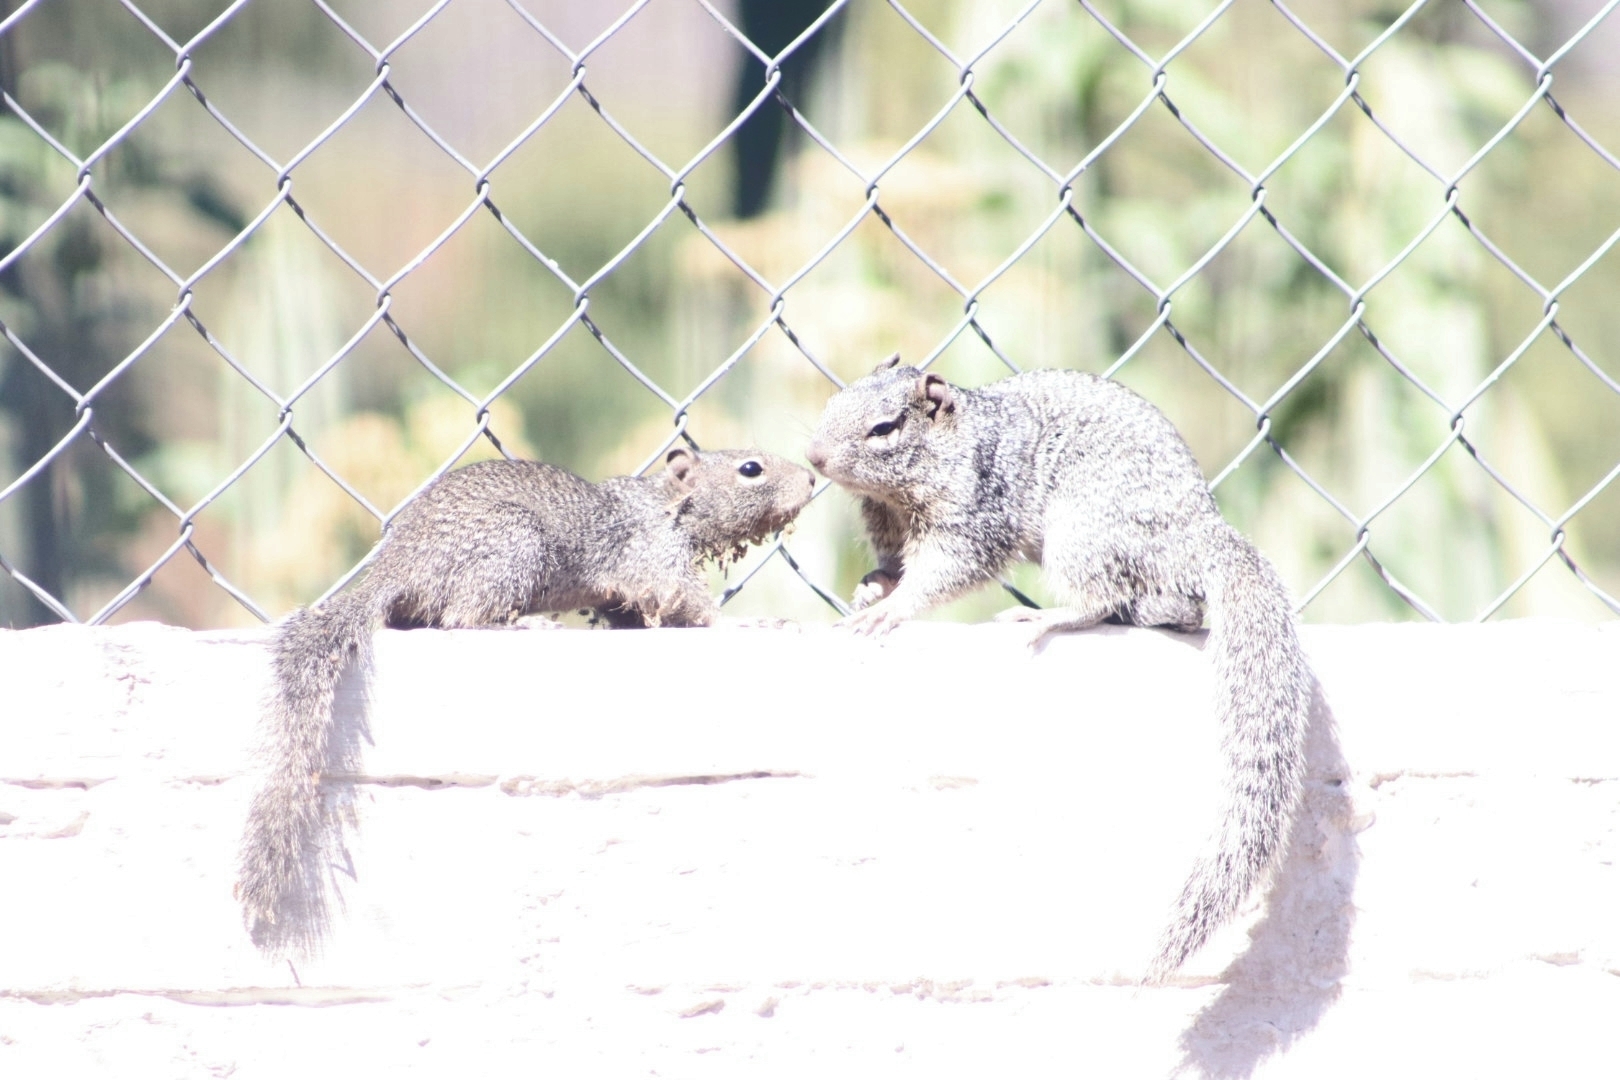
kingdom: Animalia
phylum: Chordata
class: Mammalia
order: Rodentia
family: Sciuridae
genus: Otospermophilus
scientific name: Otospermophilus variegatus
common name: Rock squirrel
